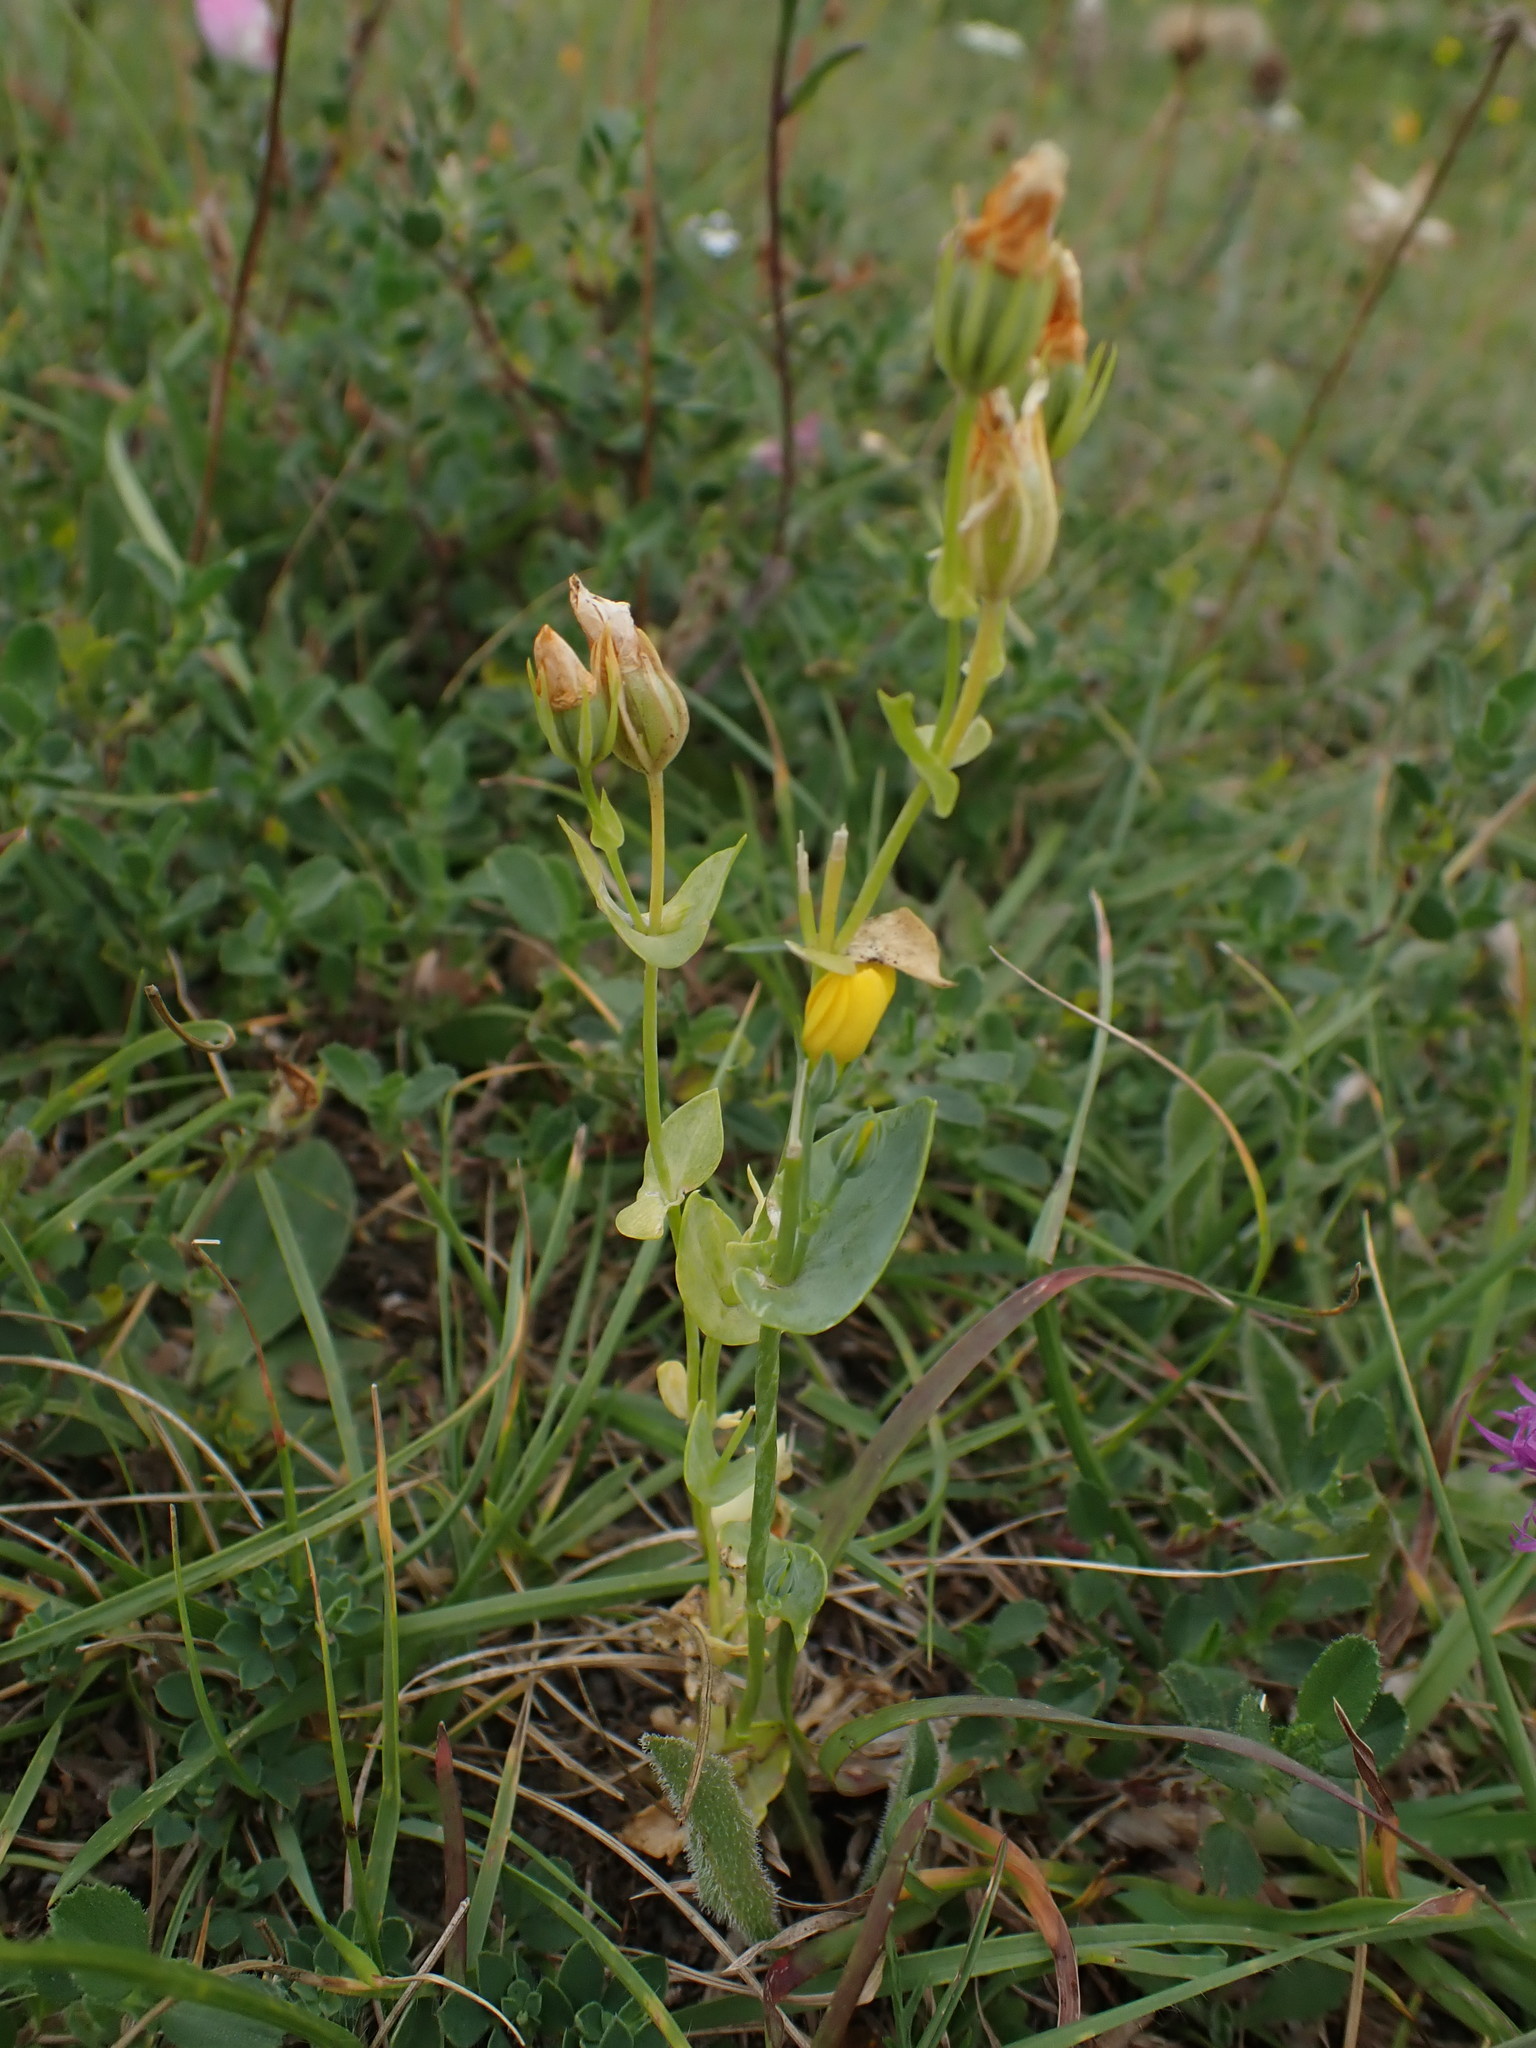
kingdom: Plantae
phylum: Tracheophyta
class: Magnoliopsida
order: Gentianales
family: Gentianaceae
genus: Blackstonia
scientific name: Blackstonia perfoliata
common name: Yellow-wort
